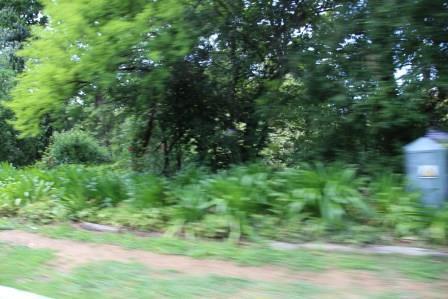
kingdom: Plantae
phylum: Tracheophyta
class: Magnoliopsida
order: Dipsacales
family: Caprifoliaceae
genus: Centranthus
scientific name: Centranthus ruber
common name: Red valerian
